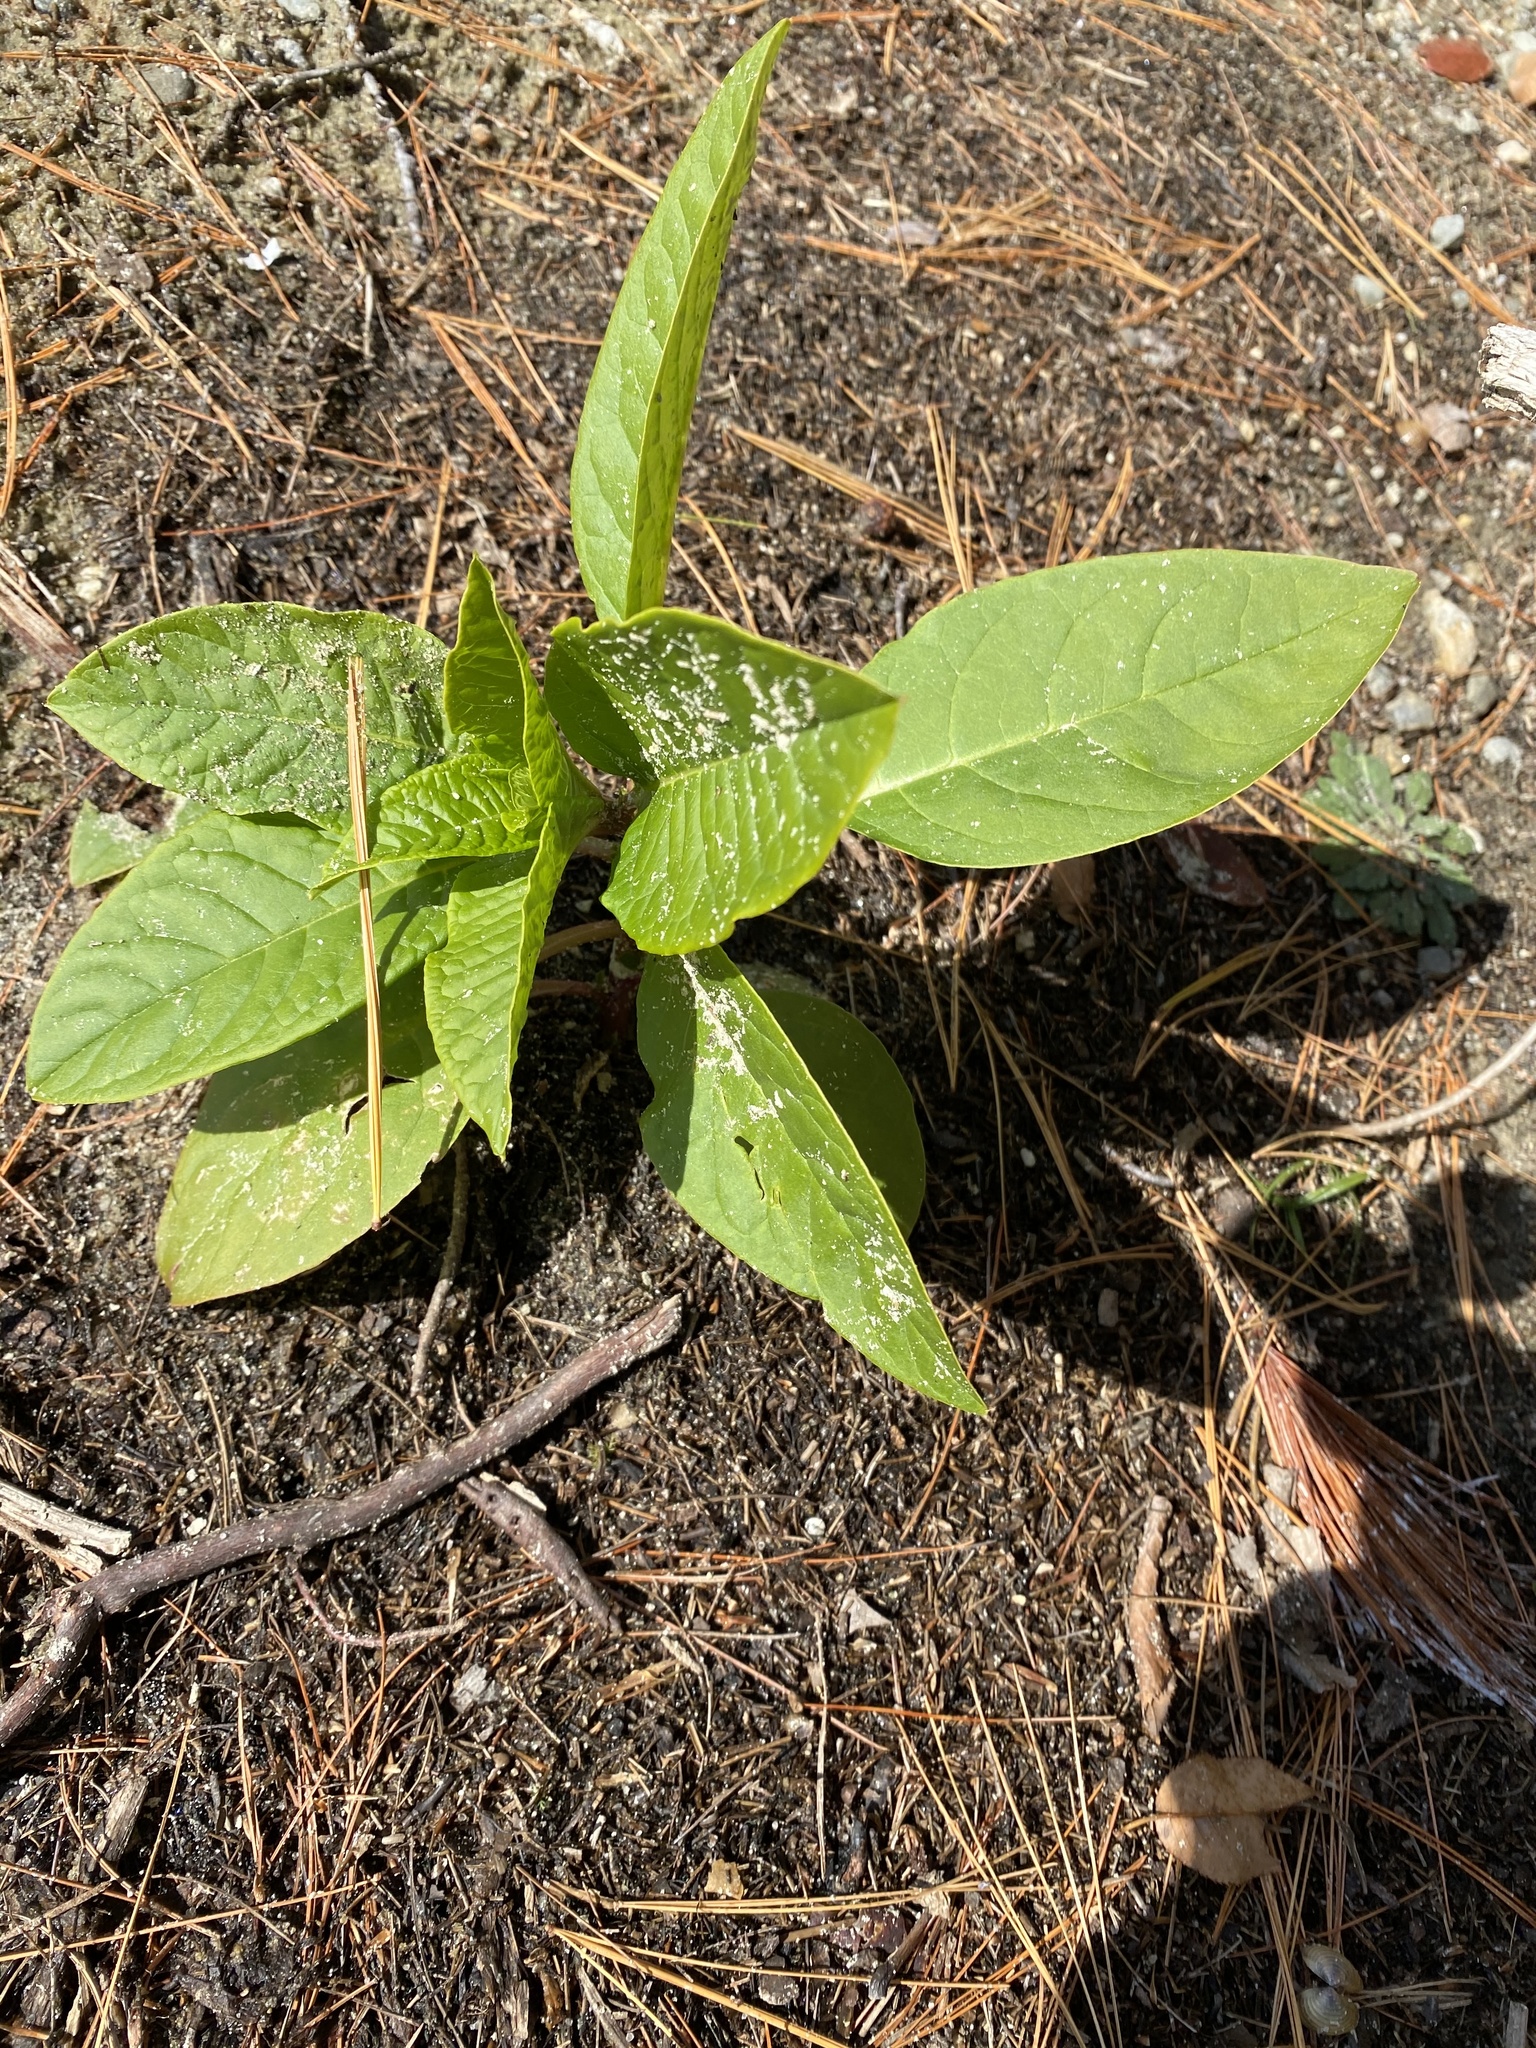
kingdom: Plantae
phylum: Tracheophyta
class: Magnoliopsida
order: Caryophyllales
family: Phytolaccaceae
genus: Phytolacca
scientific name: Phytolacca americana
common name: American pokeweed
